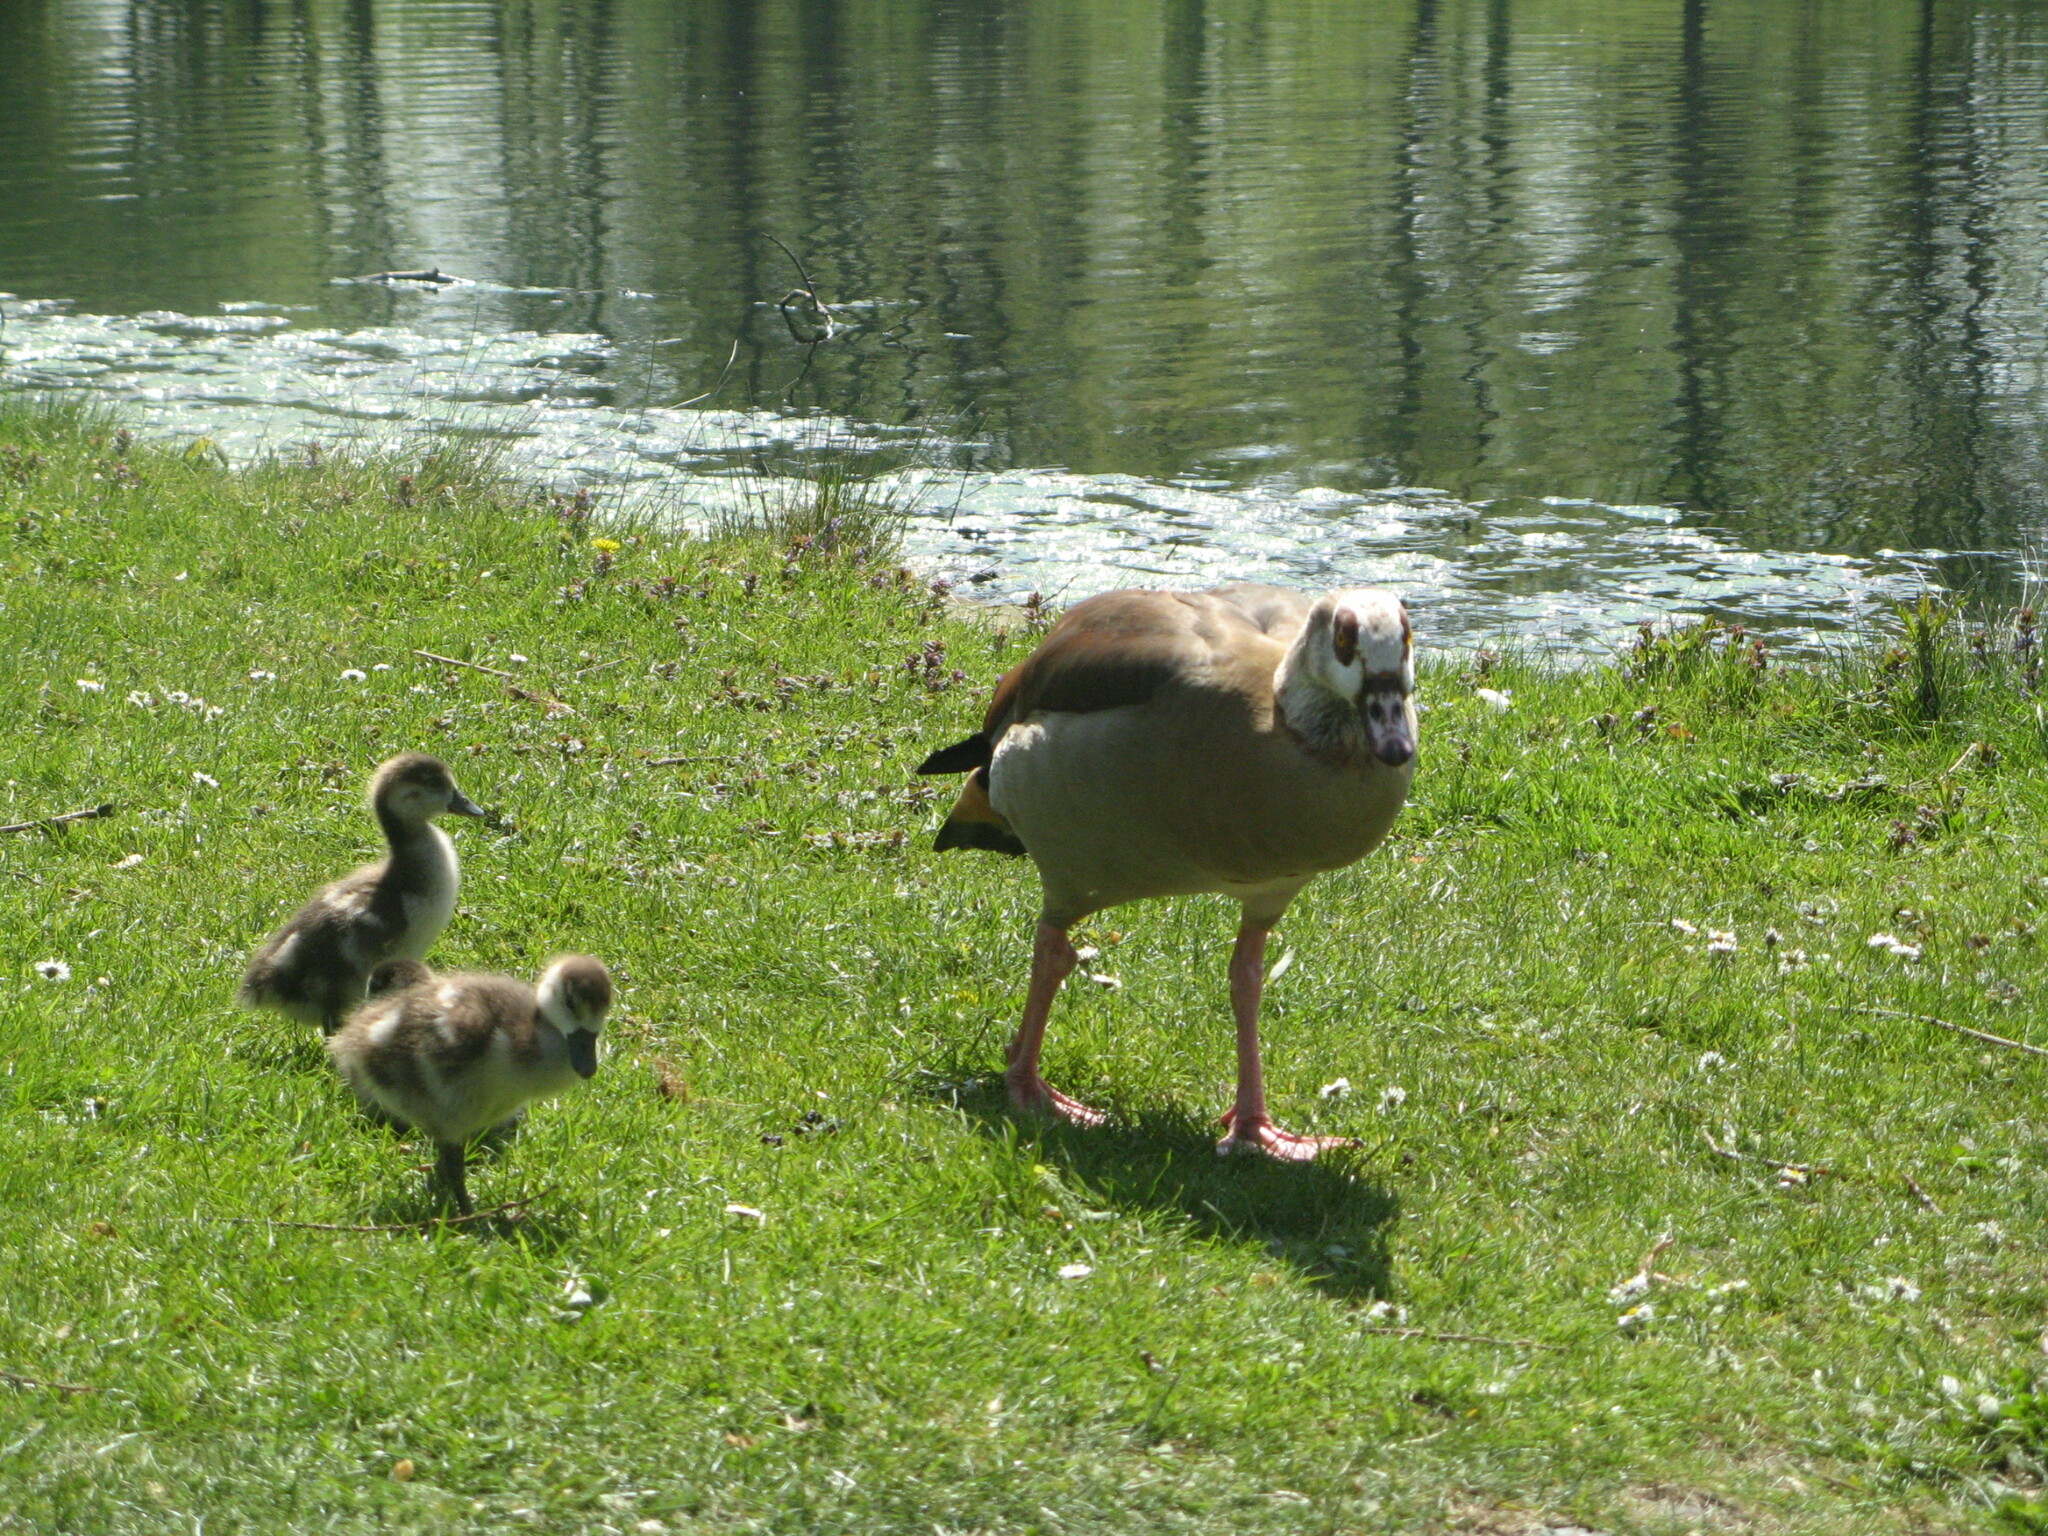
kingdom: Animalia
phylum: Chordata
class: Aves
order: Anseriformes
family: Anatidae
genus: Alopochen
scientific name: Alopochen aegyptiaca
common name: Egyptian goose
